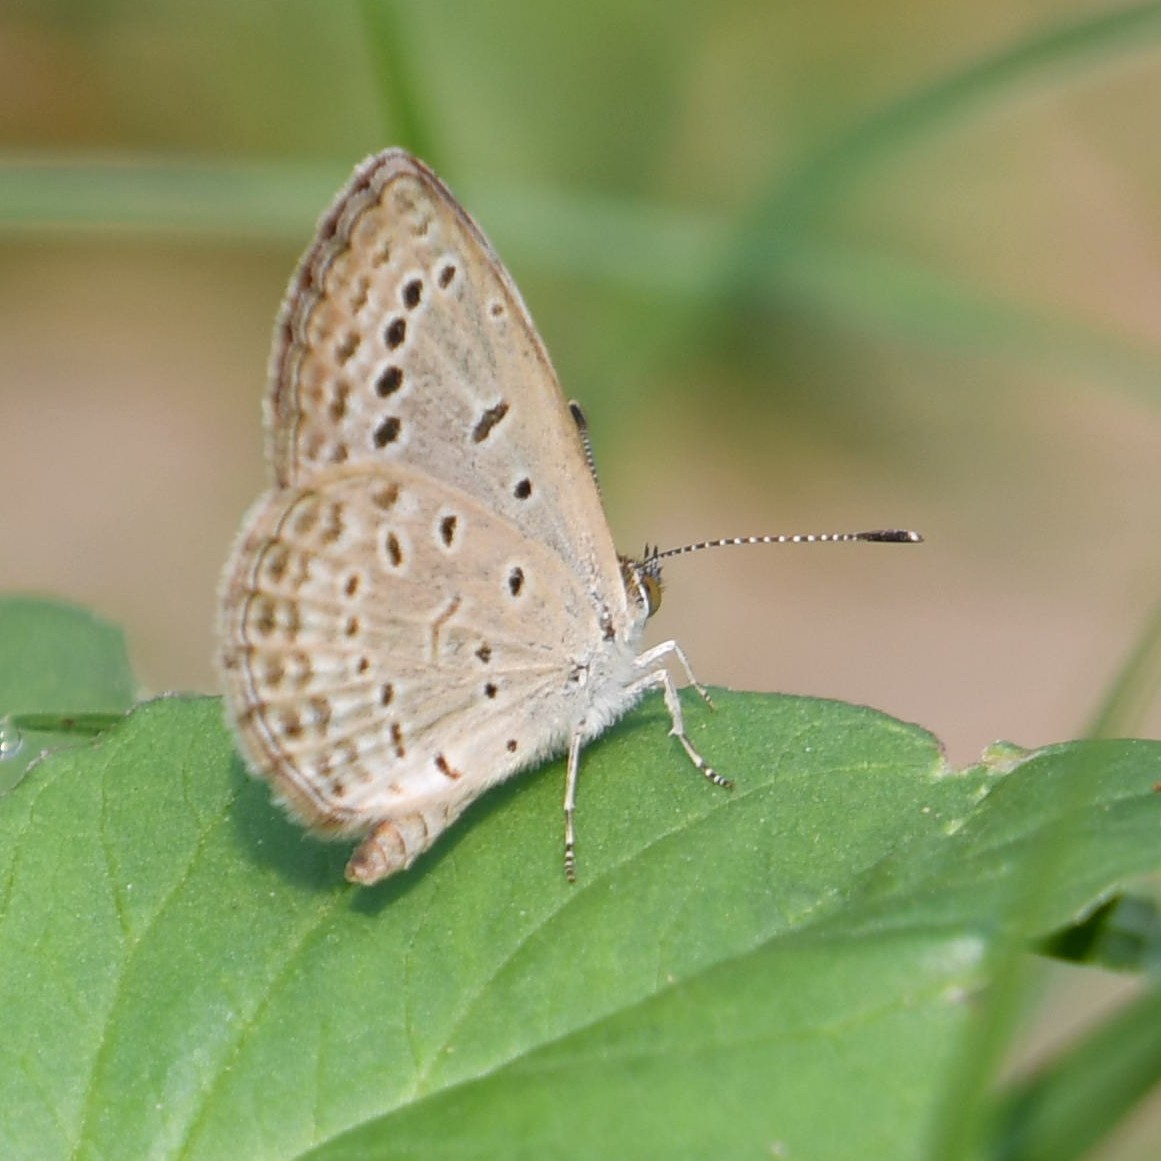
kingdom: Animalia
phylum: Arthropoda
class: Insecta
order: Lepidoptera
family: Lycaenidae
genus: Pseudozizeeria
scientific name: Pseudozizeeria maha
